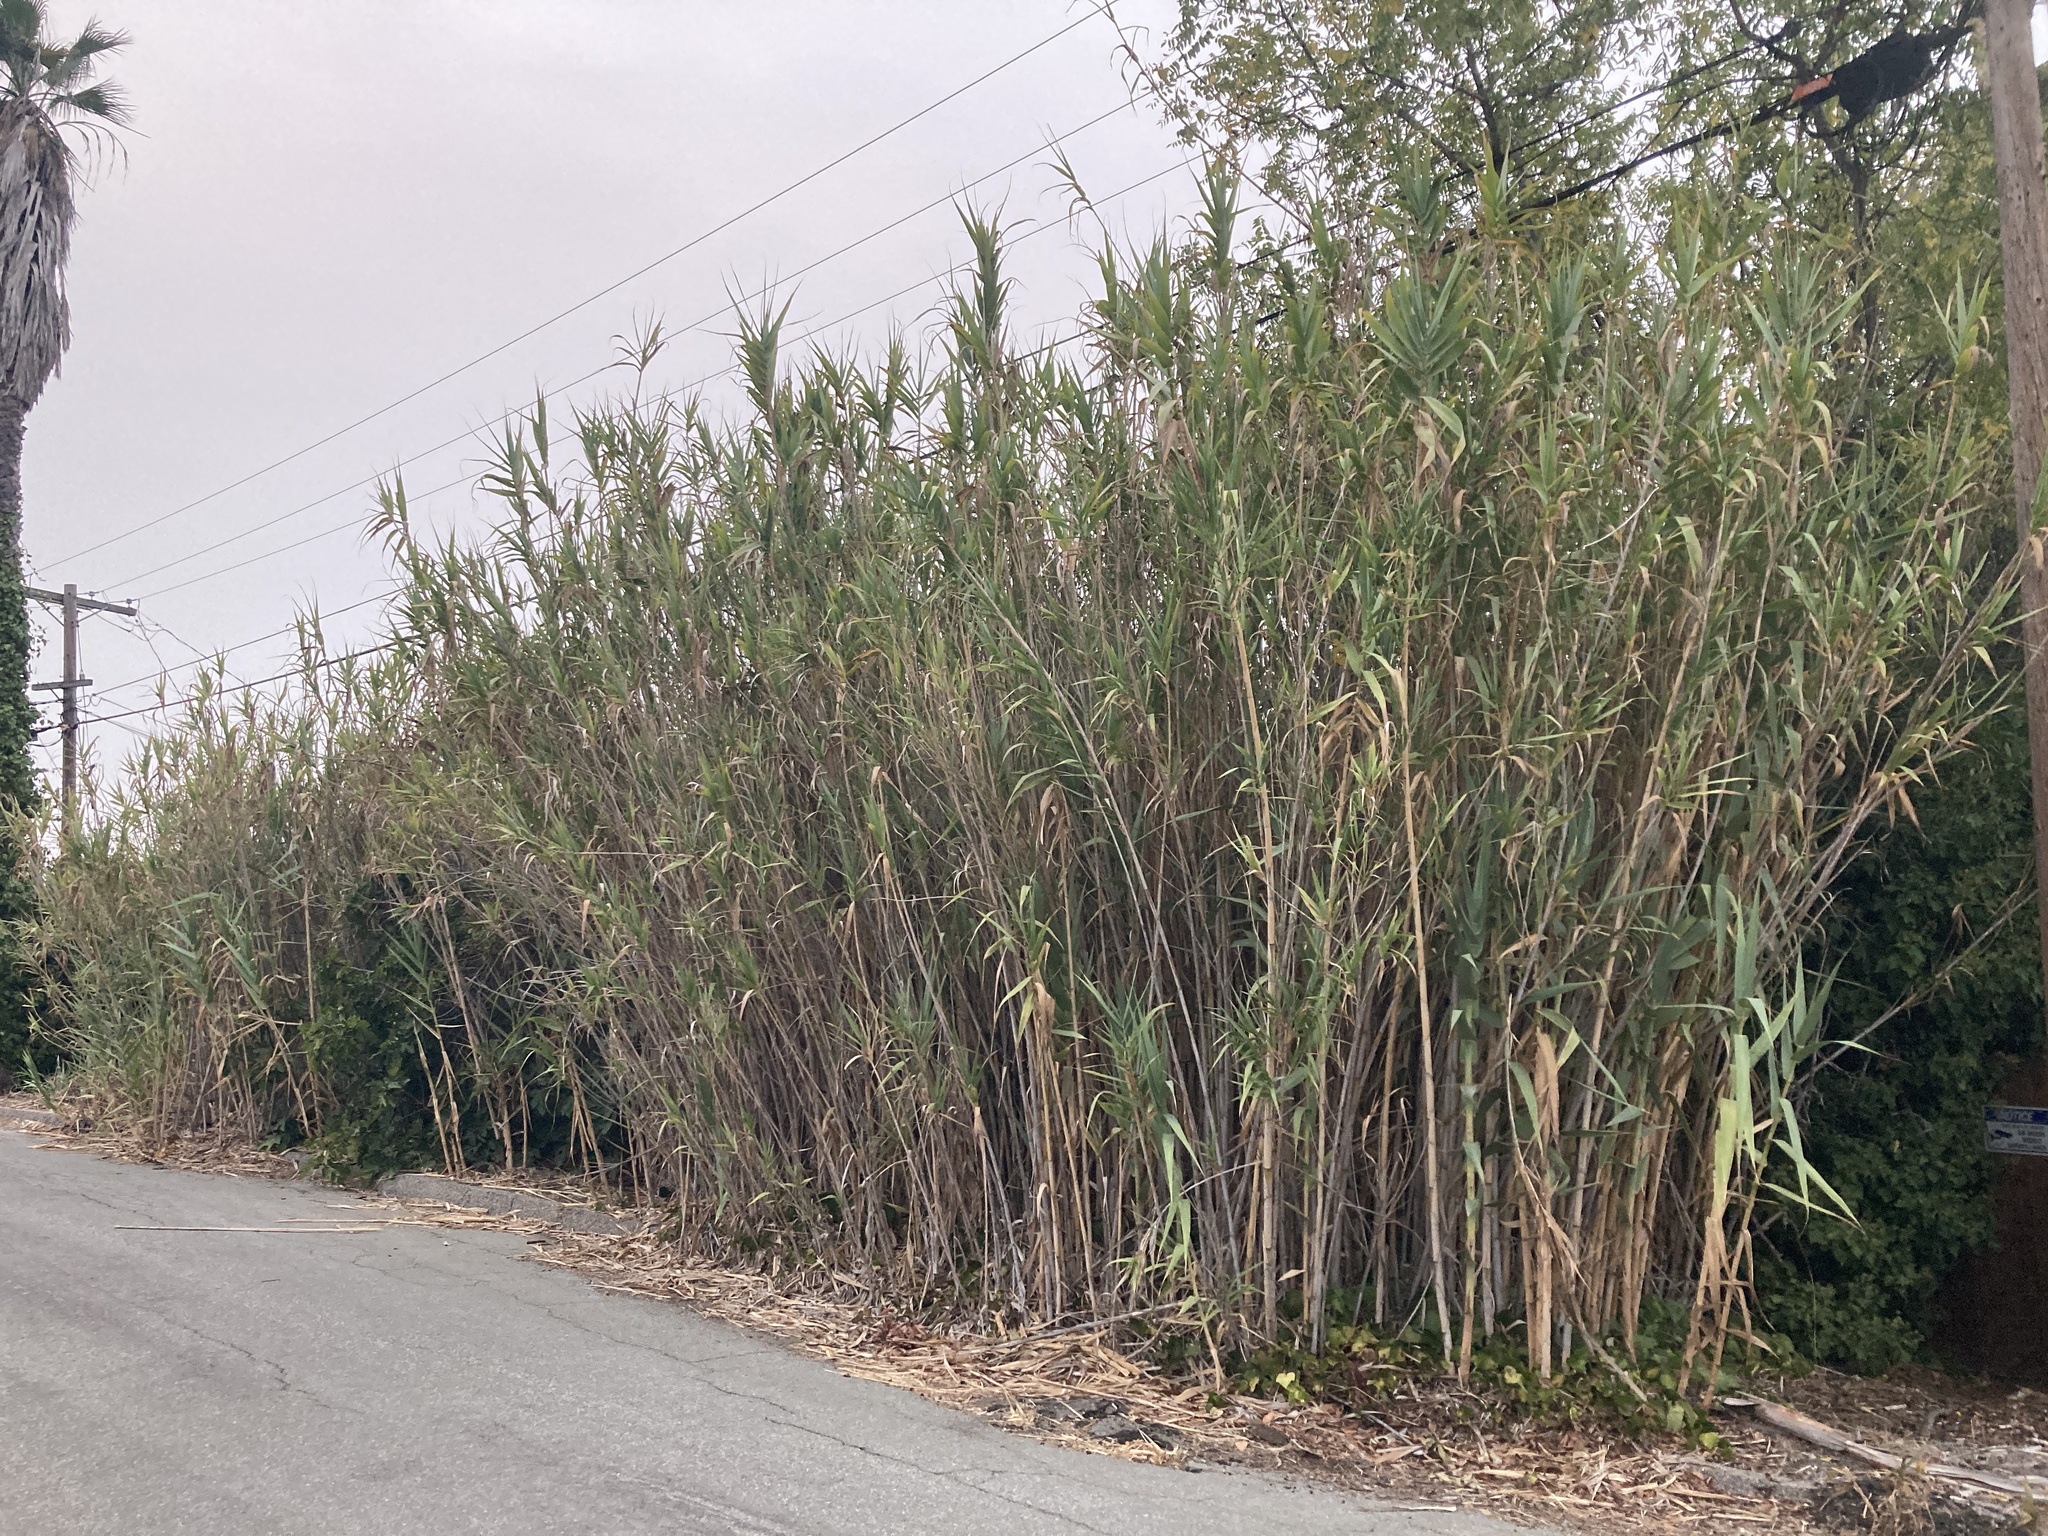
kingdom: Plantae
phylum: Tracheophyta
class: Liliopsida
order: Poales
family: Poaceae
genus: Arundo
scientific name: Arundo donax
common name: Giant reed
